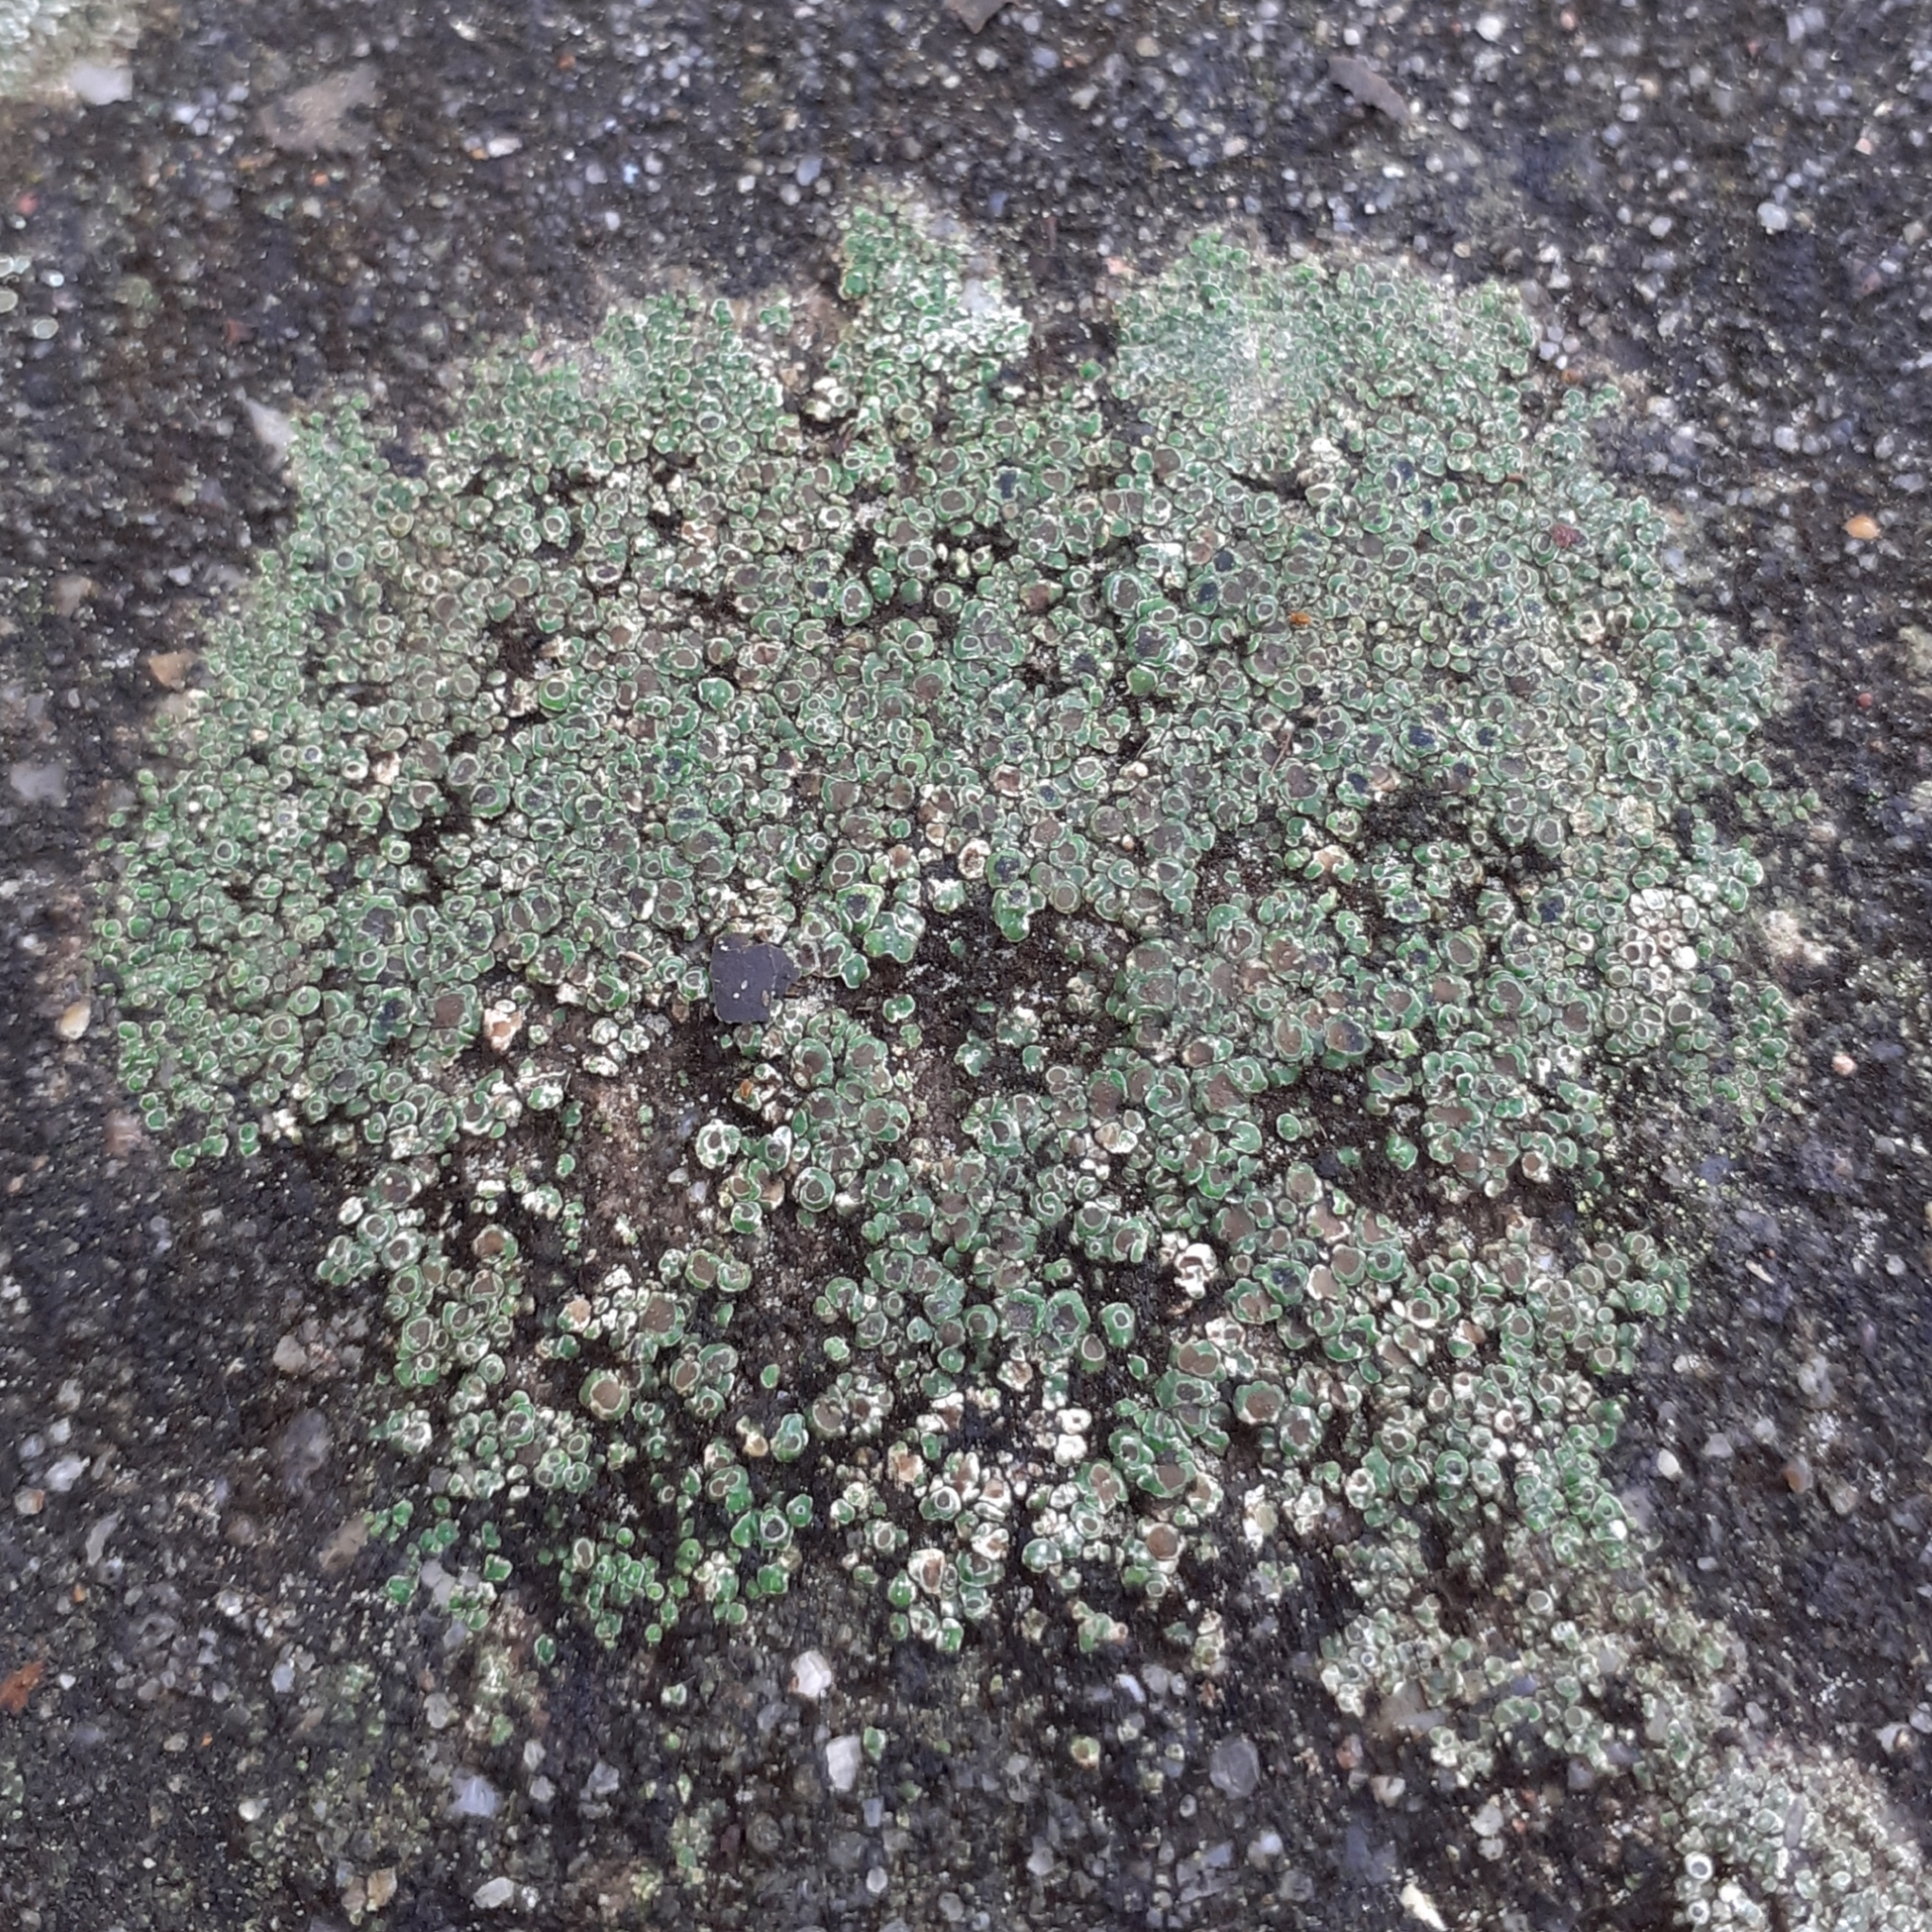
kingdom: Fungi
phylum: Ascomycota
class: Lecanoromycetes
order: Pertusariales
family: Megasporaceae
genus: Circinaria
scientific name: Circinaria contorta
